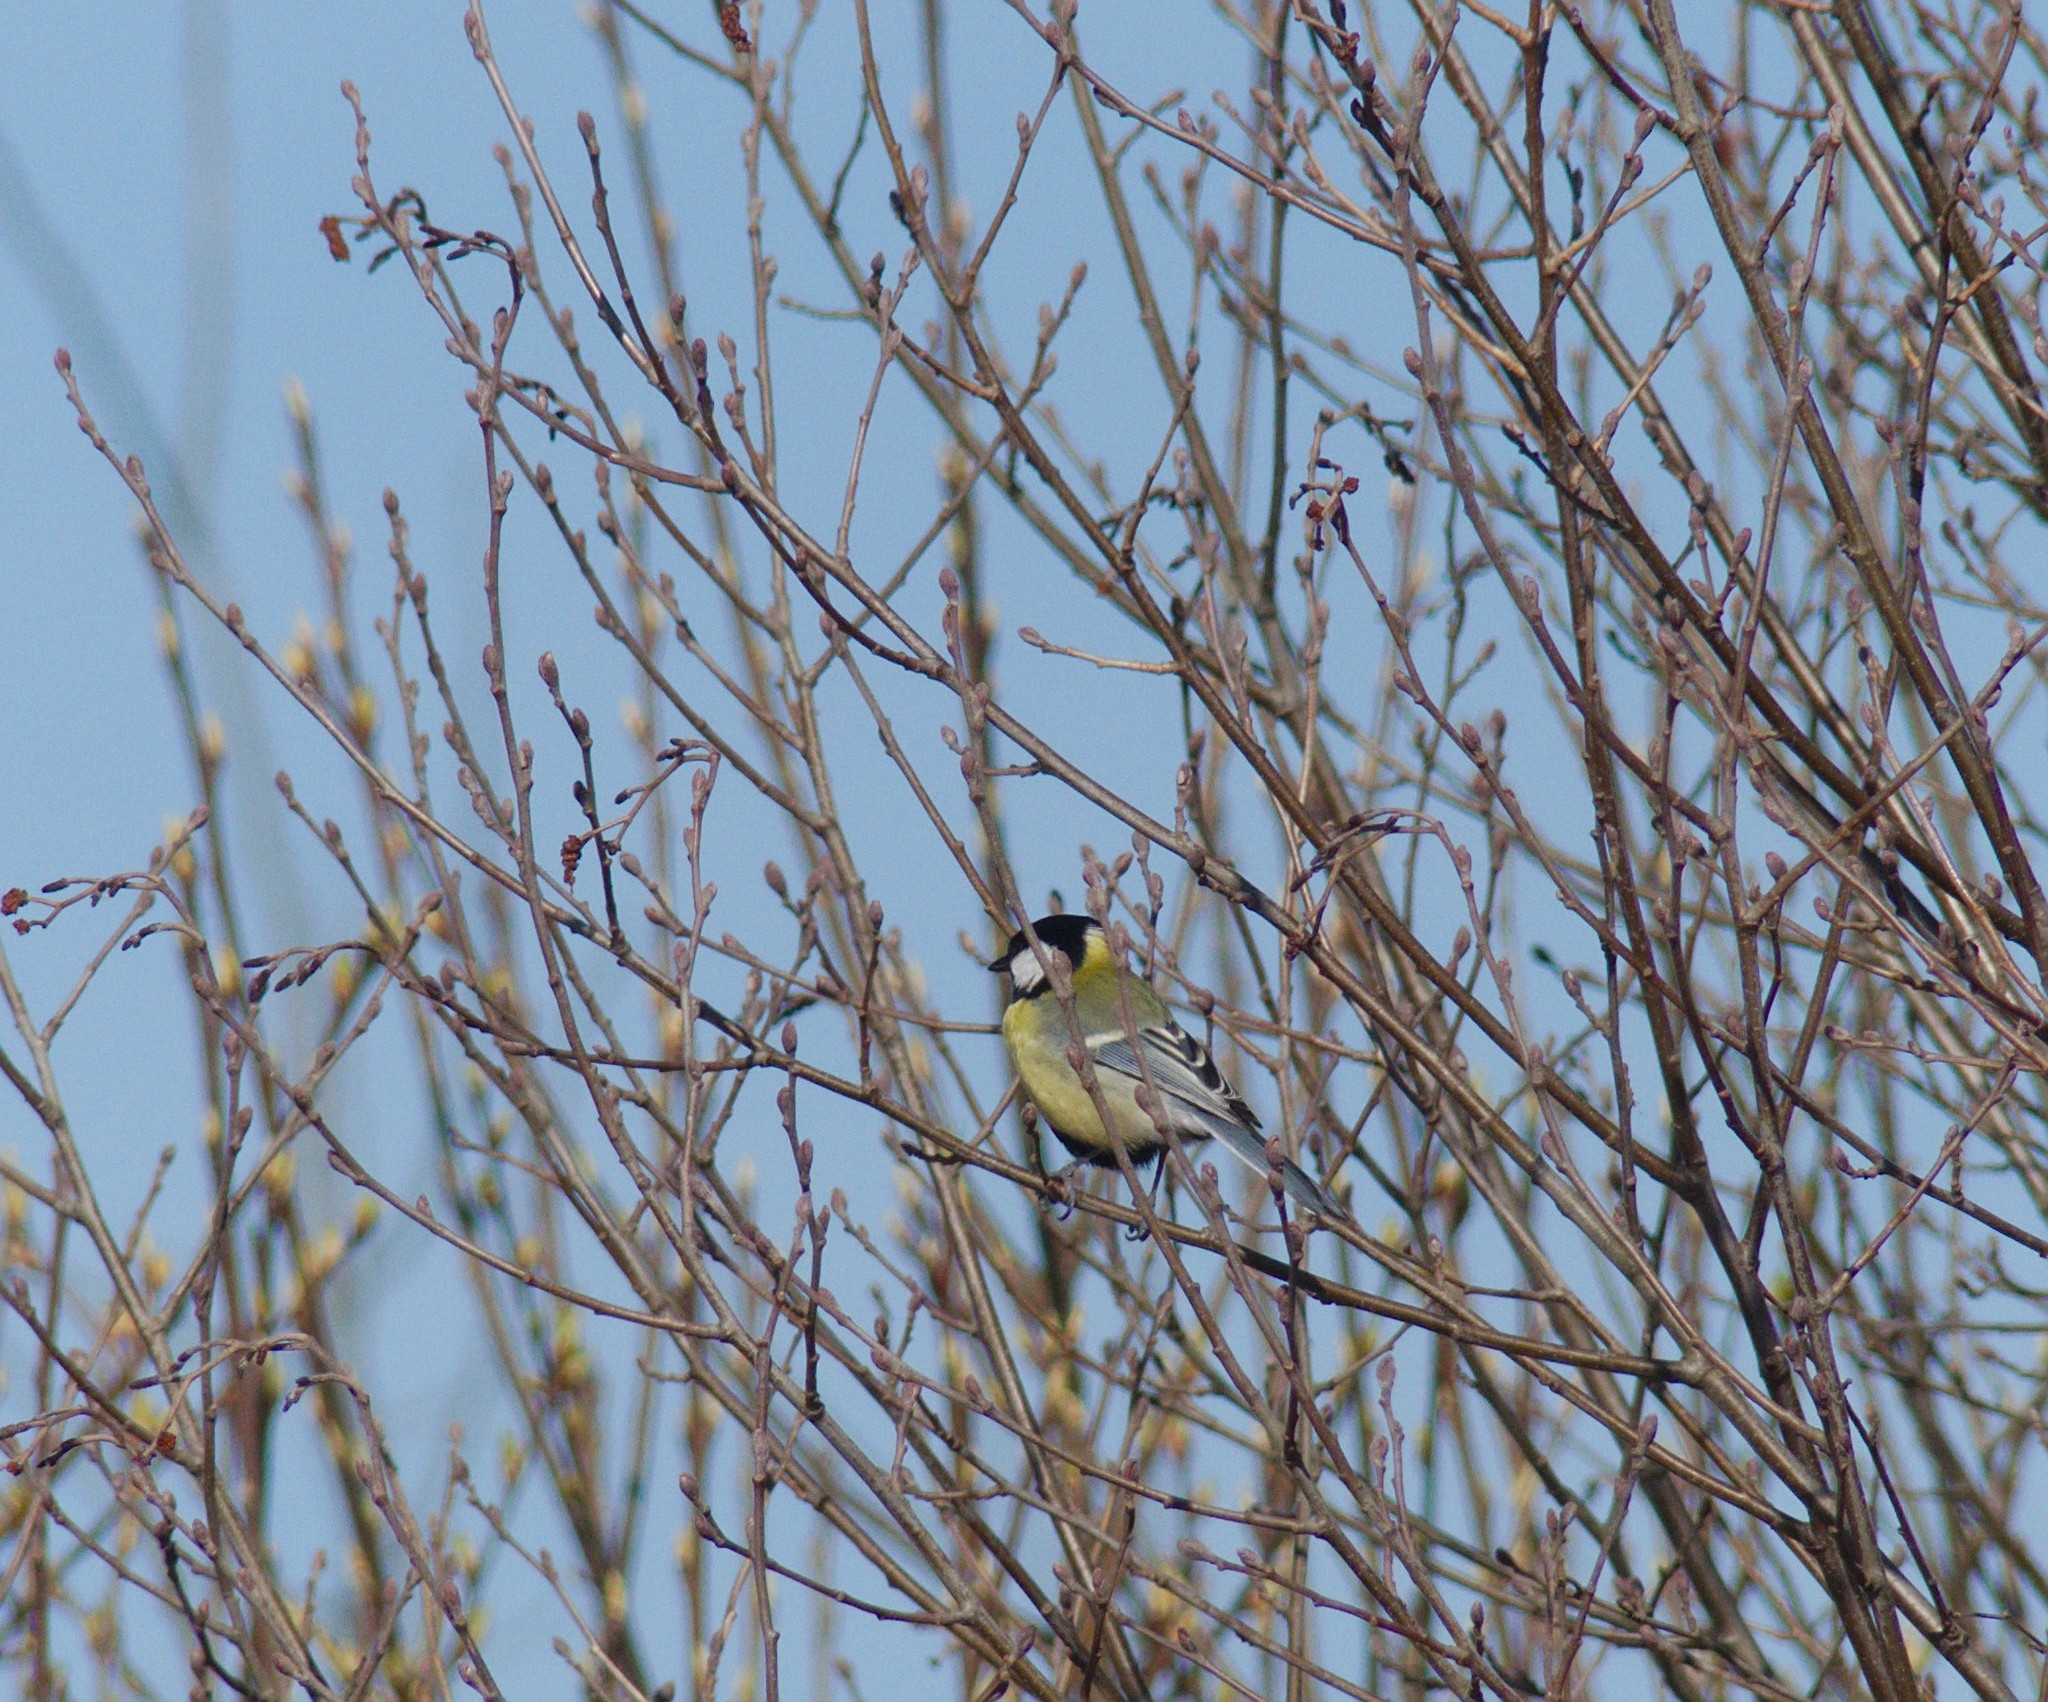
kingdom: Animalia
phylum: Chordata
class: Aves
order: Passeriformes
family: Paridae
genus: Parus
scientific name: Parus major
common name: Great tit
